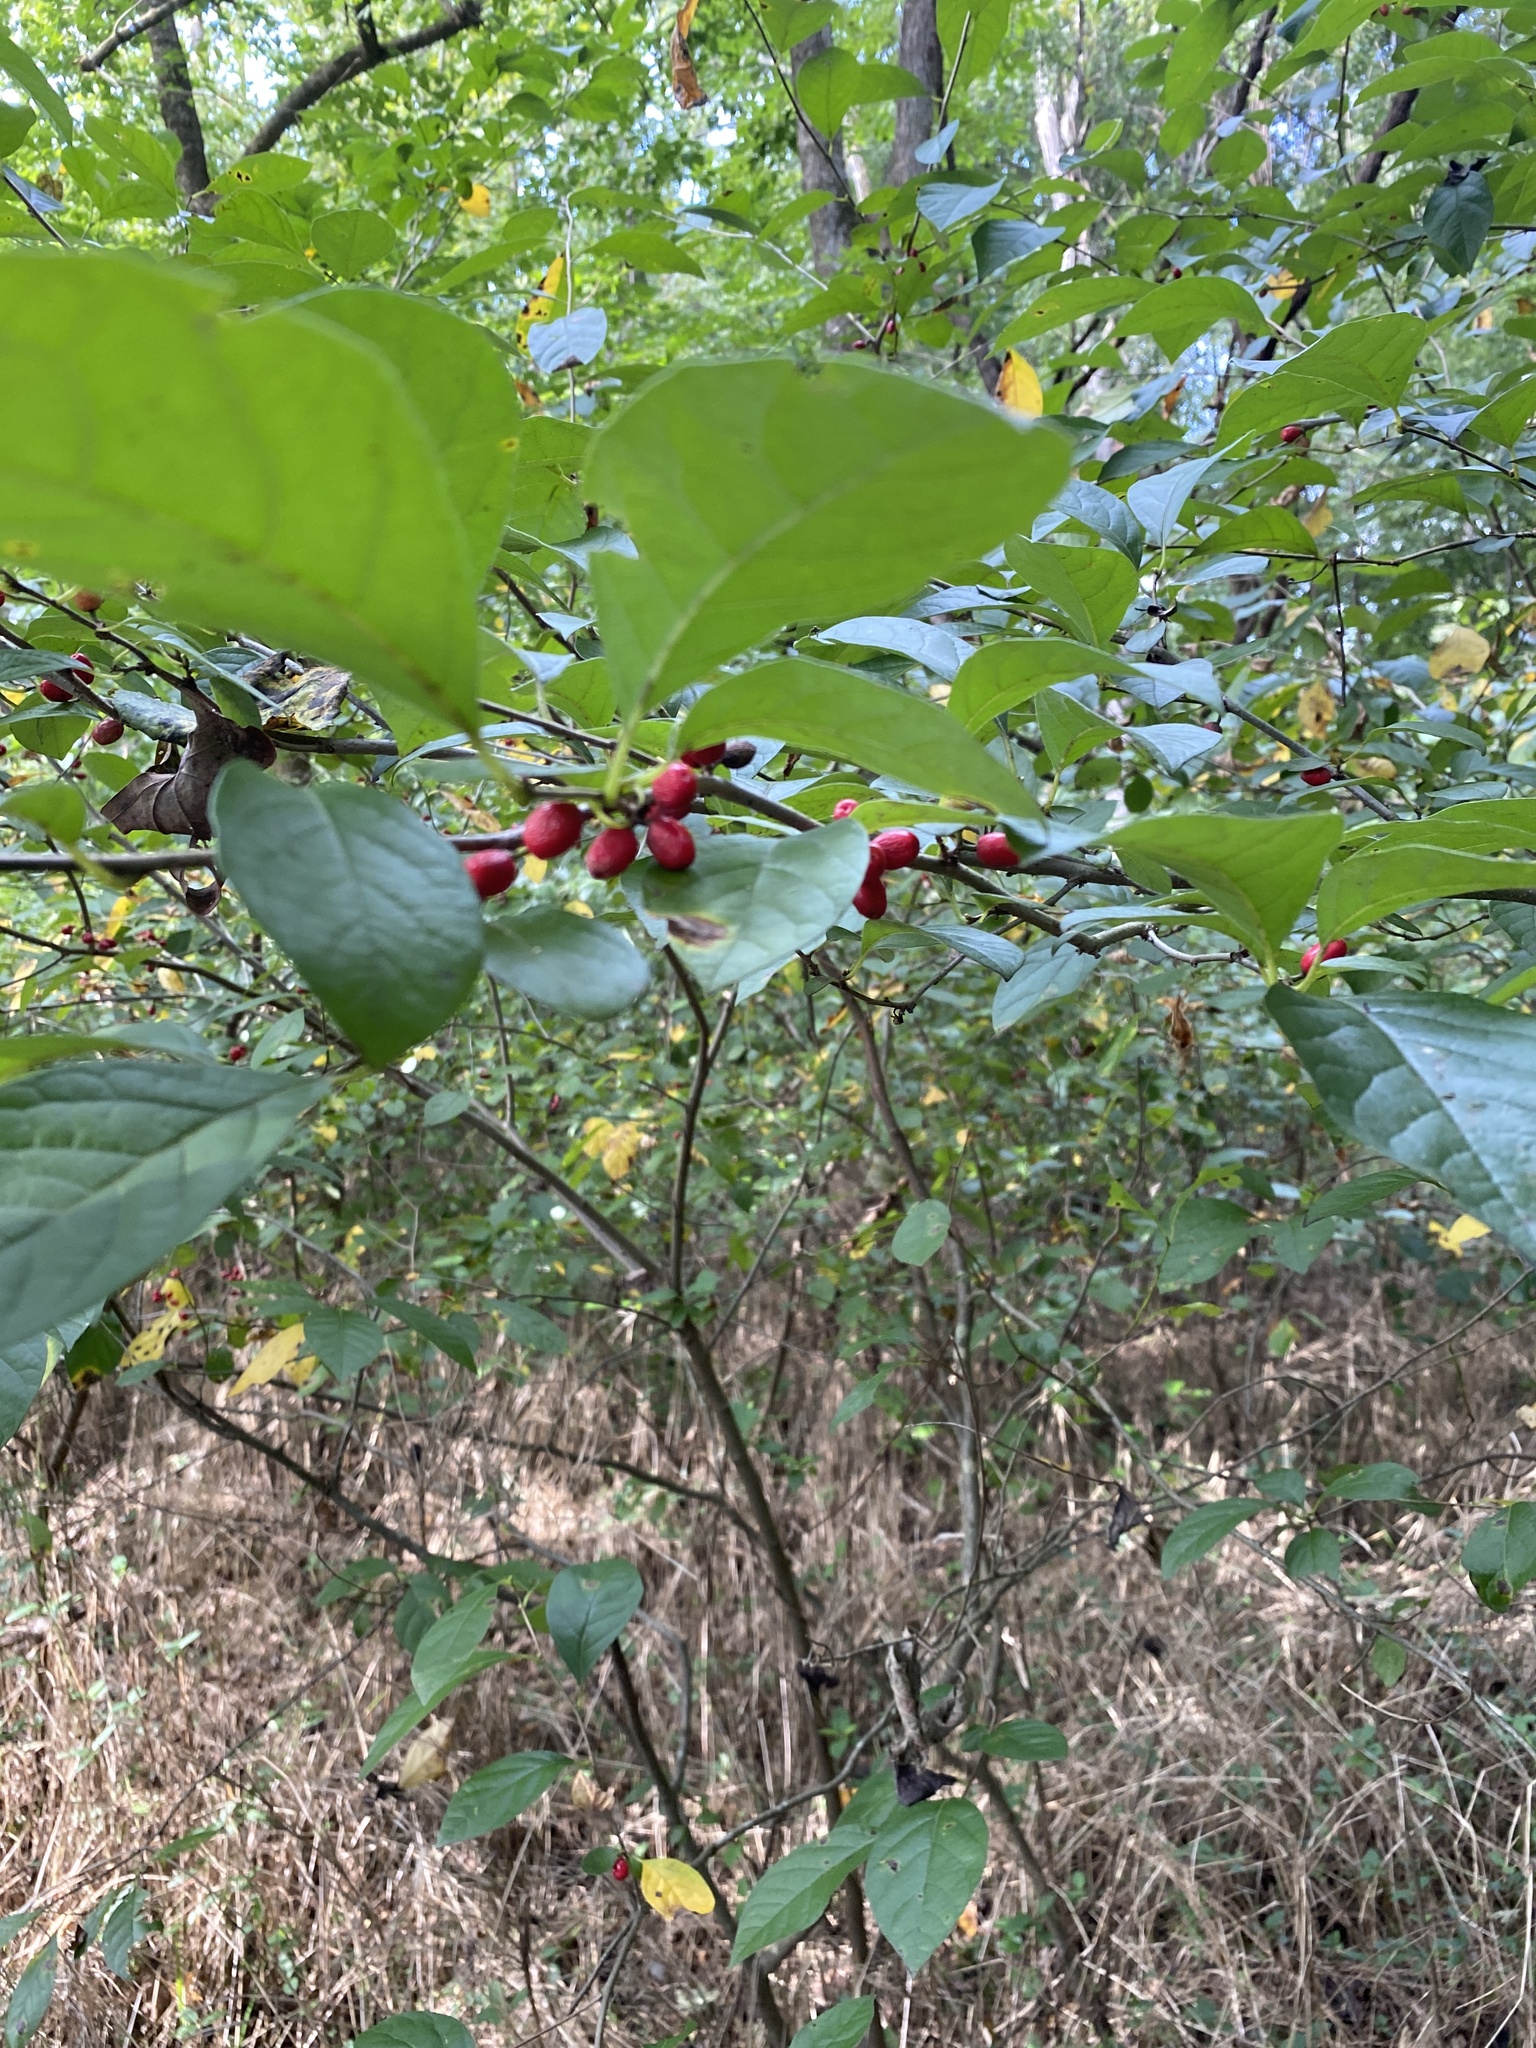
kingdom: Plantae
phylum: Tracheophyta
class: Magnoliopsida
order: Laurales
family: Lauraceae
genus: Lindera
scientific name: Lindera benzoin
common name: Spicebush
